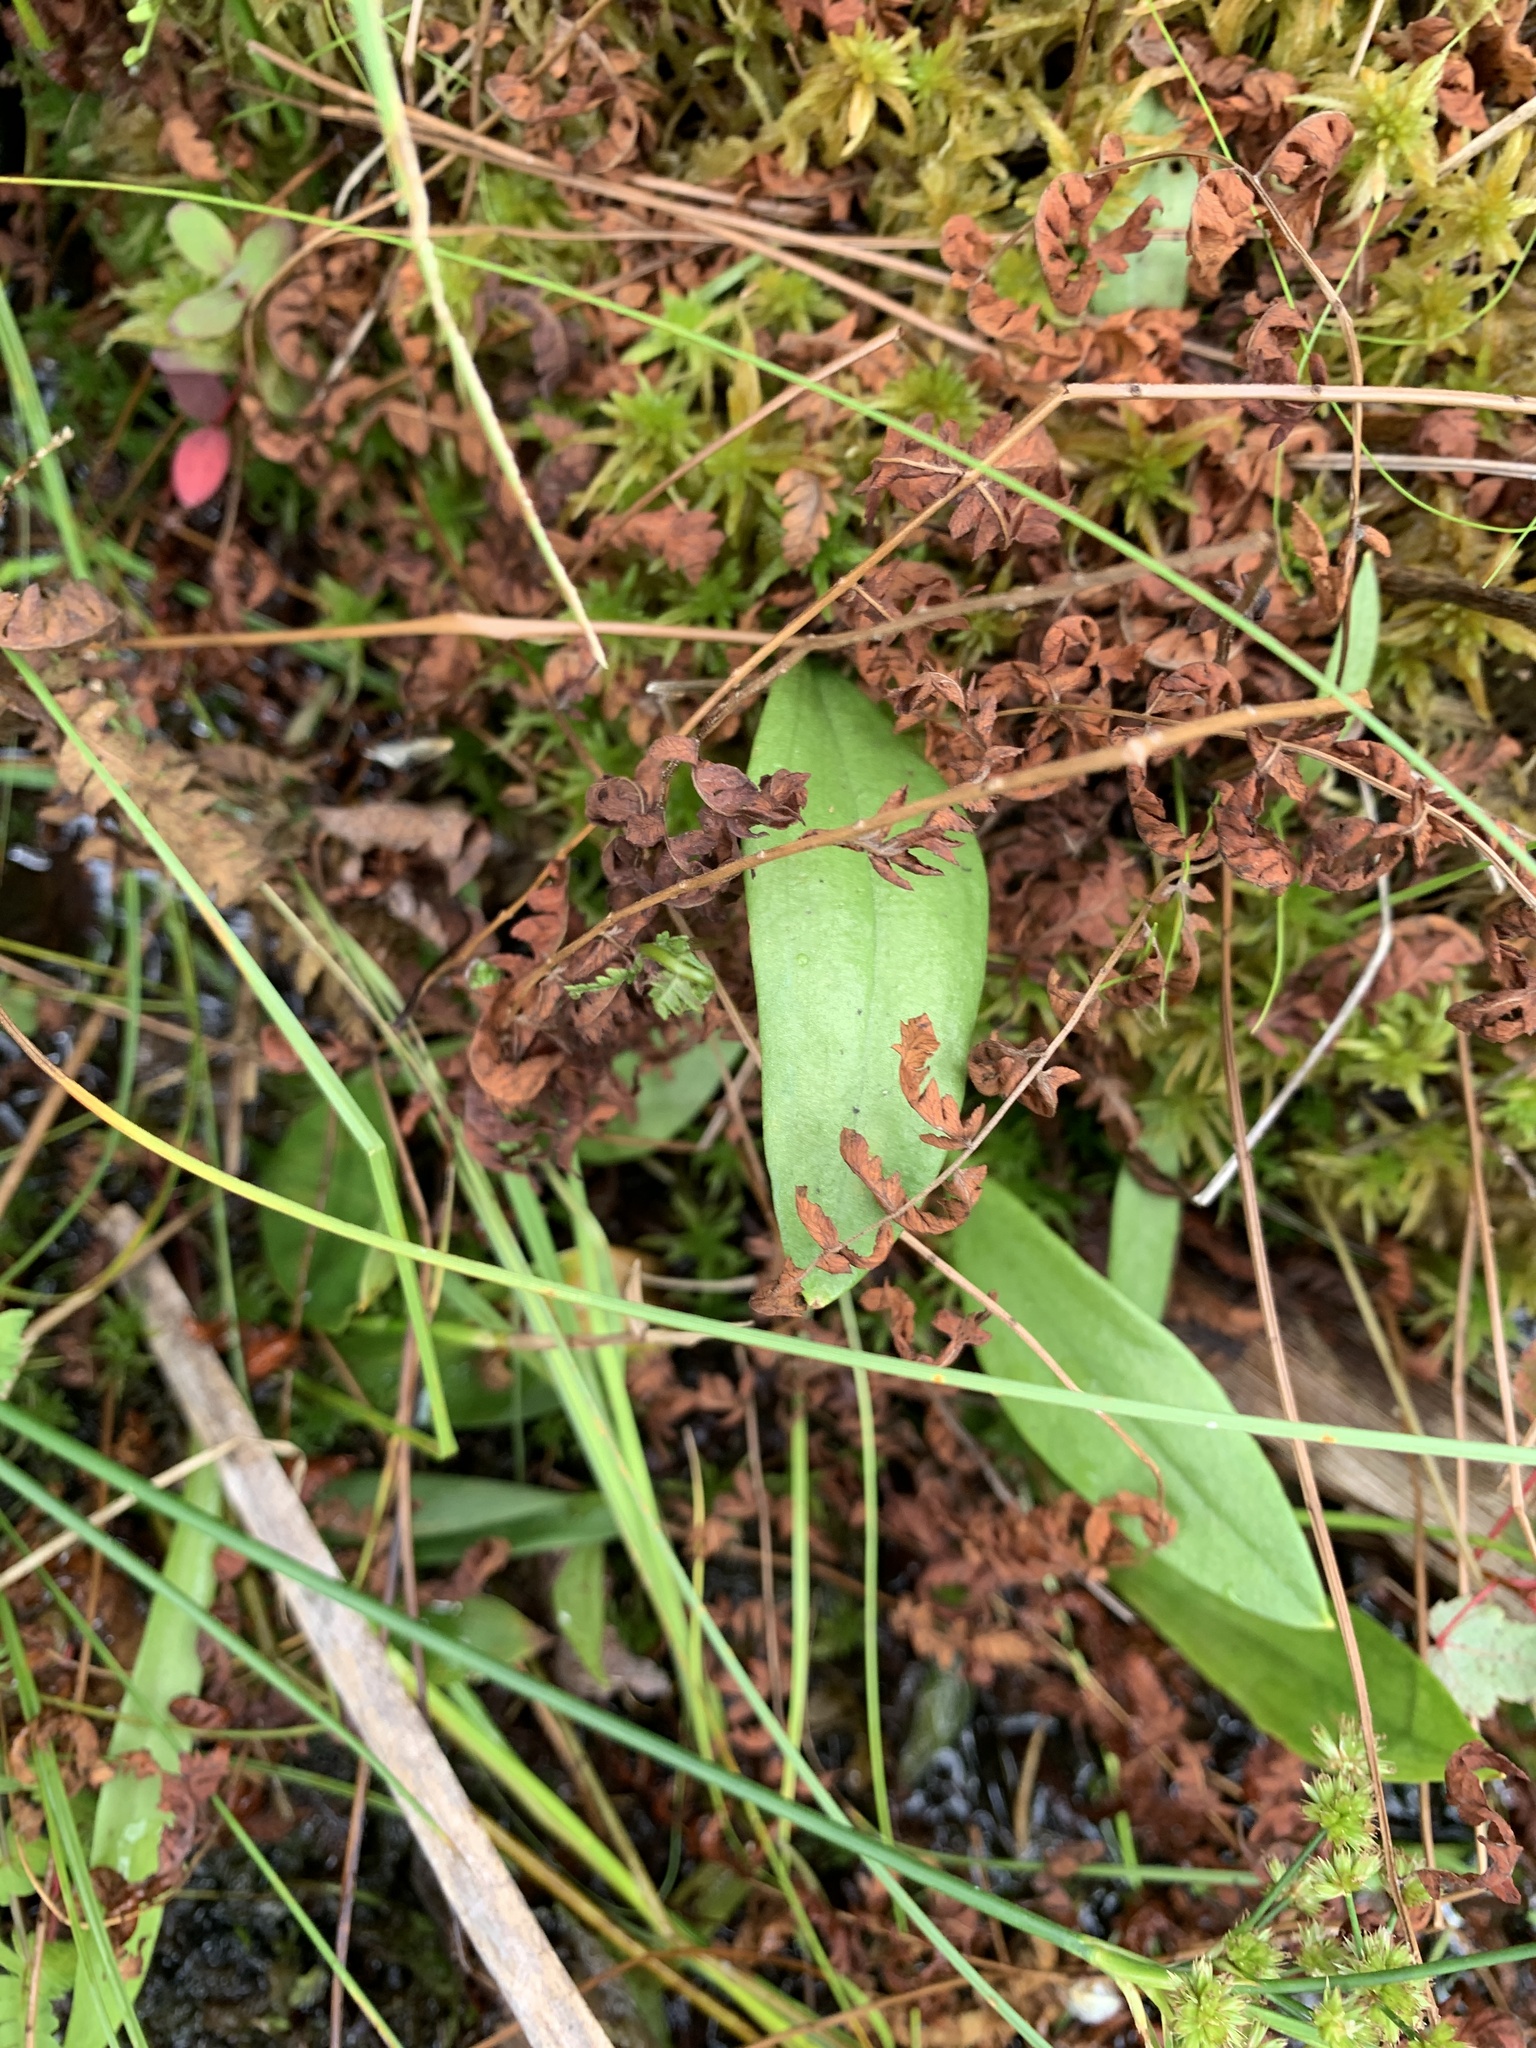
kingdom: Plantae
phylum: Tracheophyta
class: Liliopsida
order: Asparagales
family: Asparagaceae
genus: Maianthemum
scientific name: Maianthemum trifolium
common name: Swamp false solomon's seal
